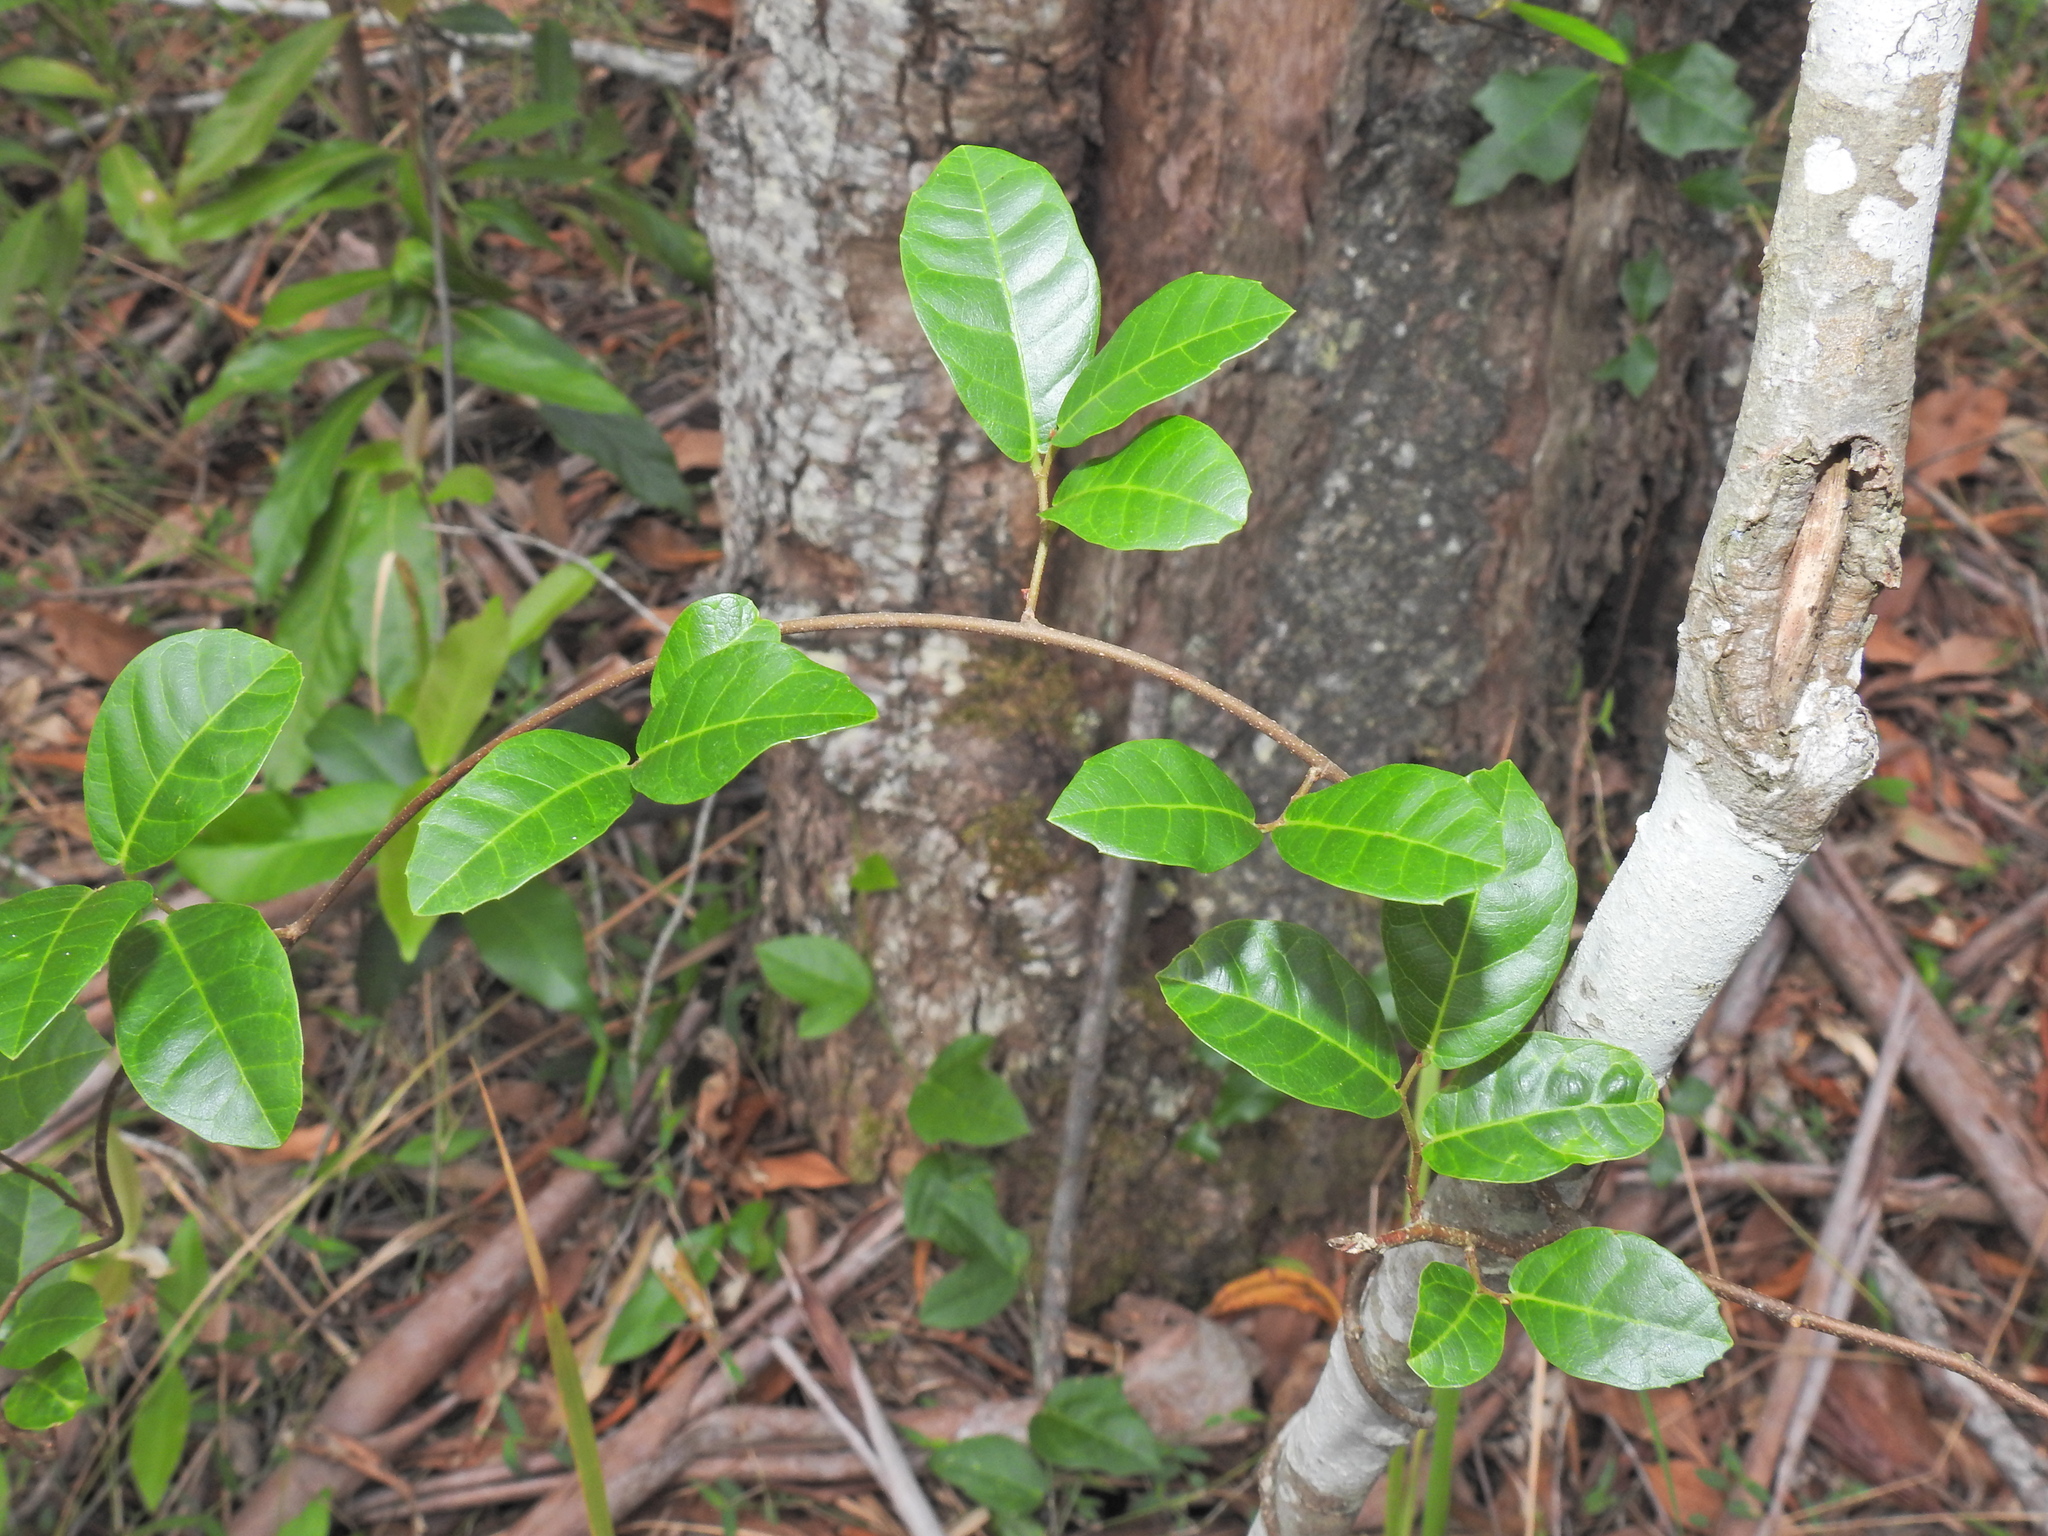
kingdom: Plantae
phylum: Tracheophyta
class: Magnoliopsida
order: Rosales
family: Moraceae
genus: Malaisia
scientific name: Malaisia scandens
